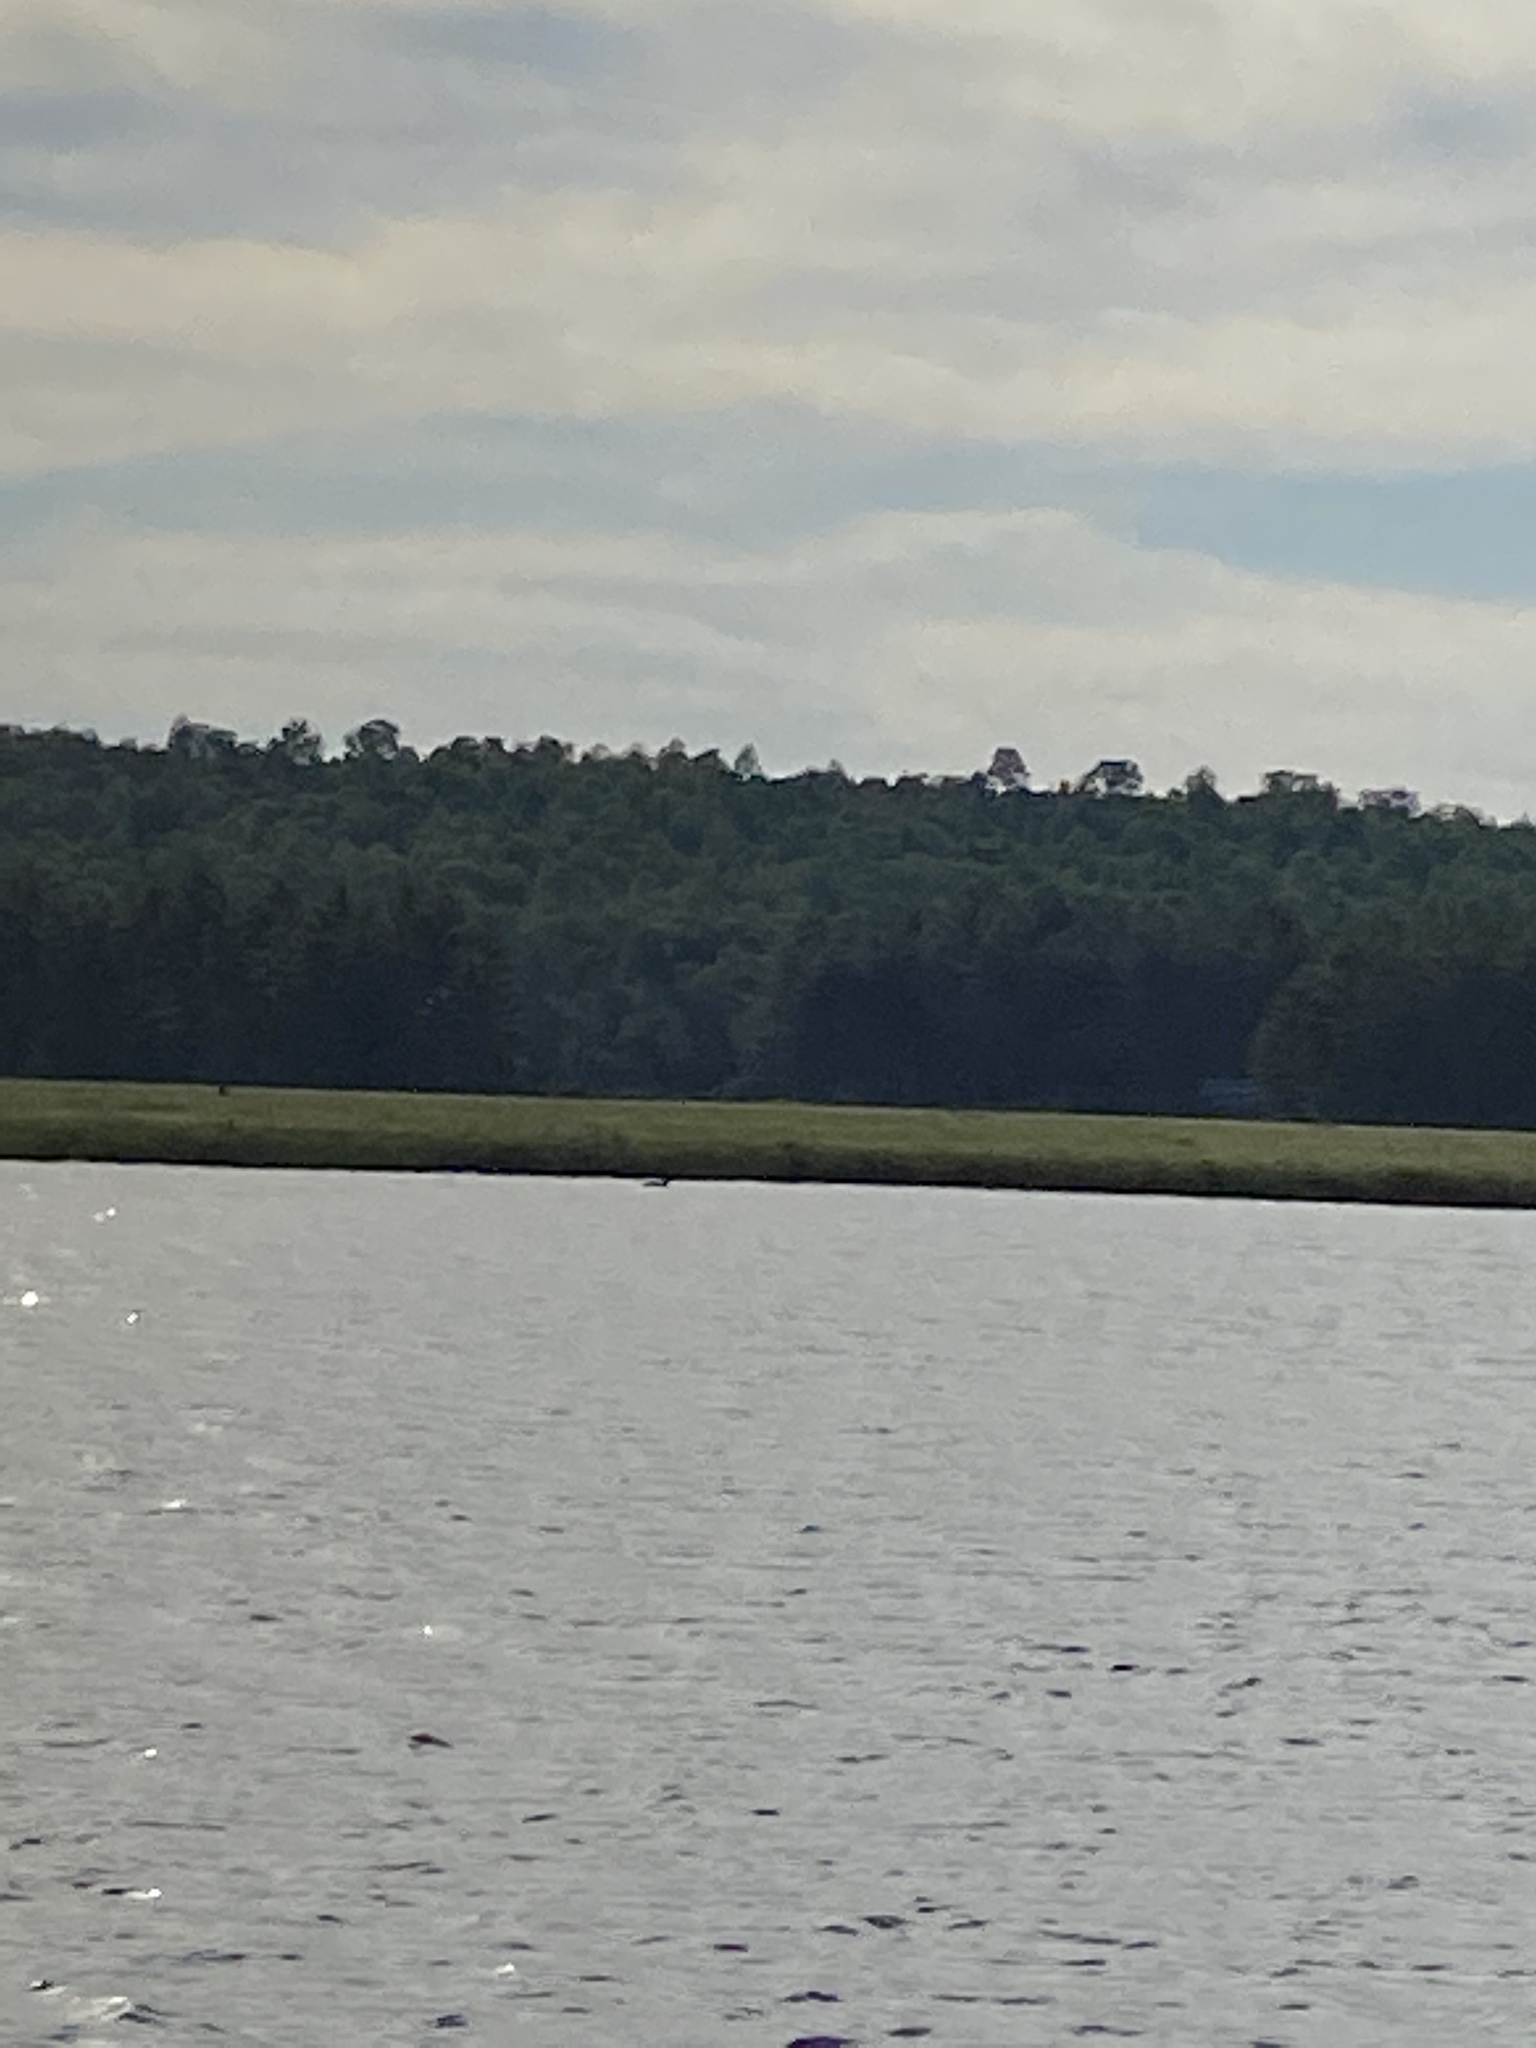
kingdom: Animalia
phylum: Chordata
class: Aves
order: Gaviiformes
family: Gaviidae
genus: Gavia
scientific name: Gavia immer
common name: Common loon
